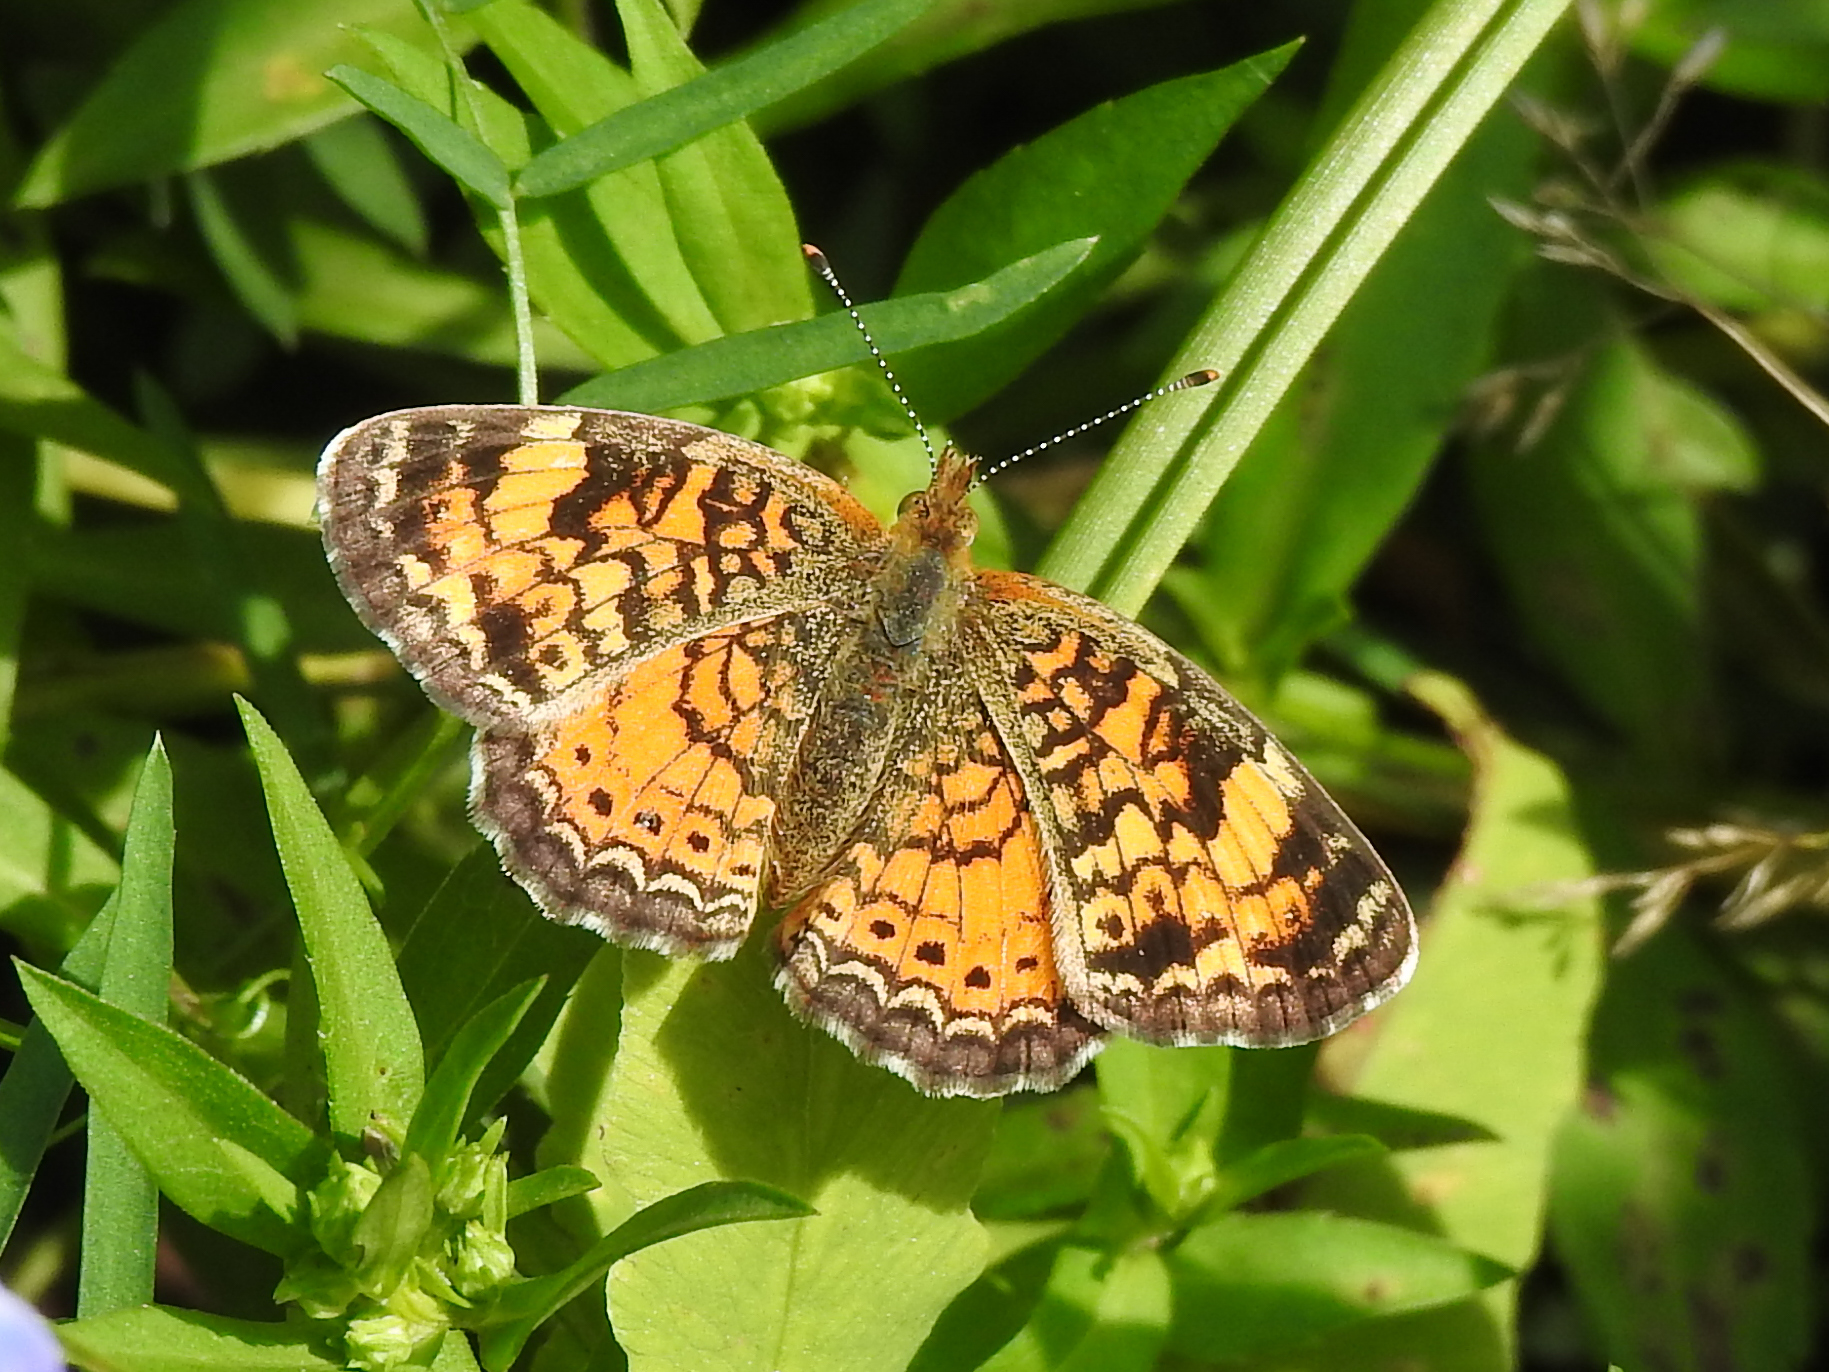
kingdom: Animalia
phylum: Arthropoda
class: Insecta
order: Lepidoptera
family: Nymphalidae
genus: Phyciodes
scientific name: Phyciodes tharos
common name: Pearl crescent
